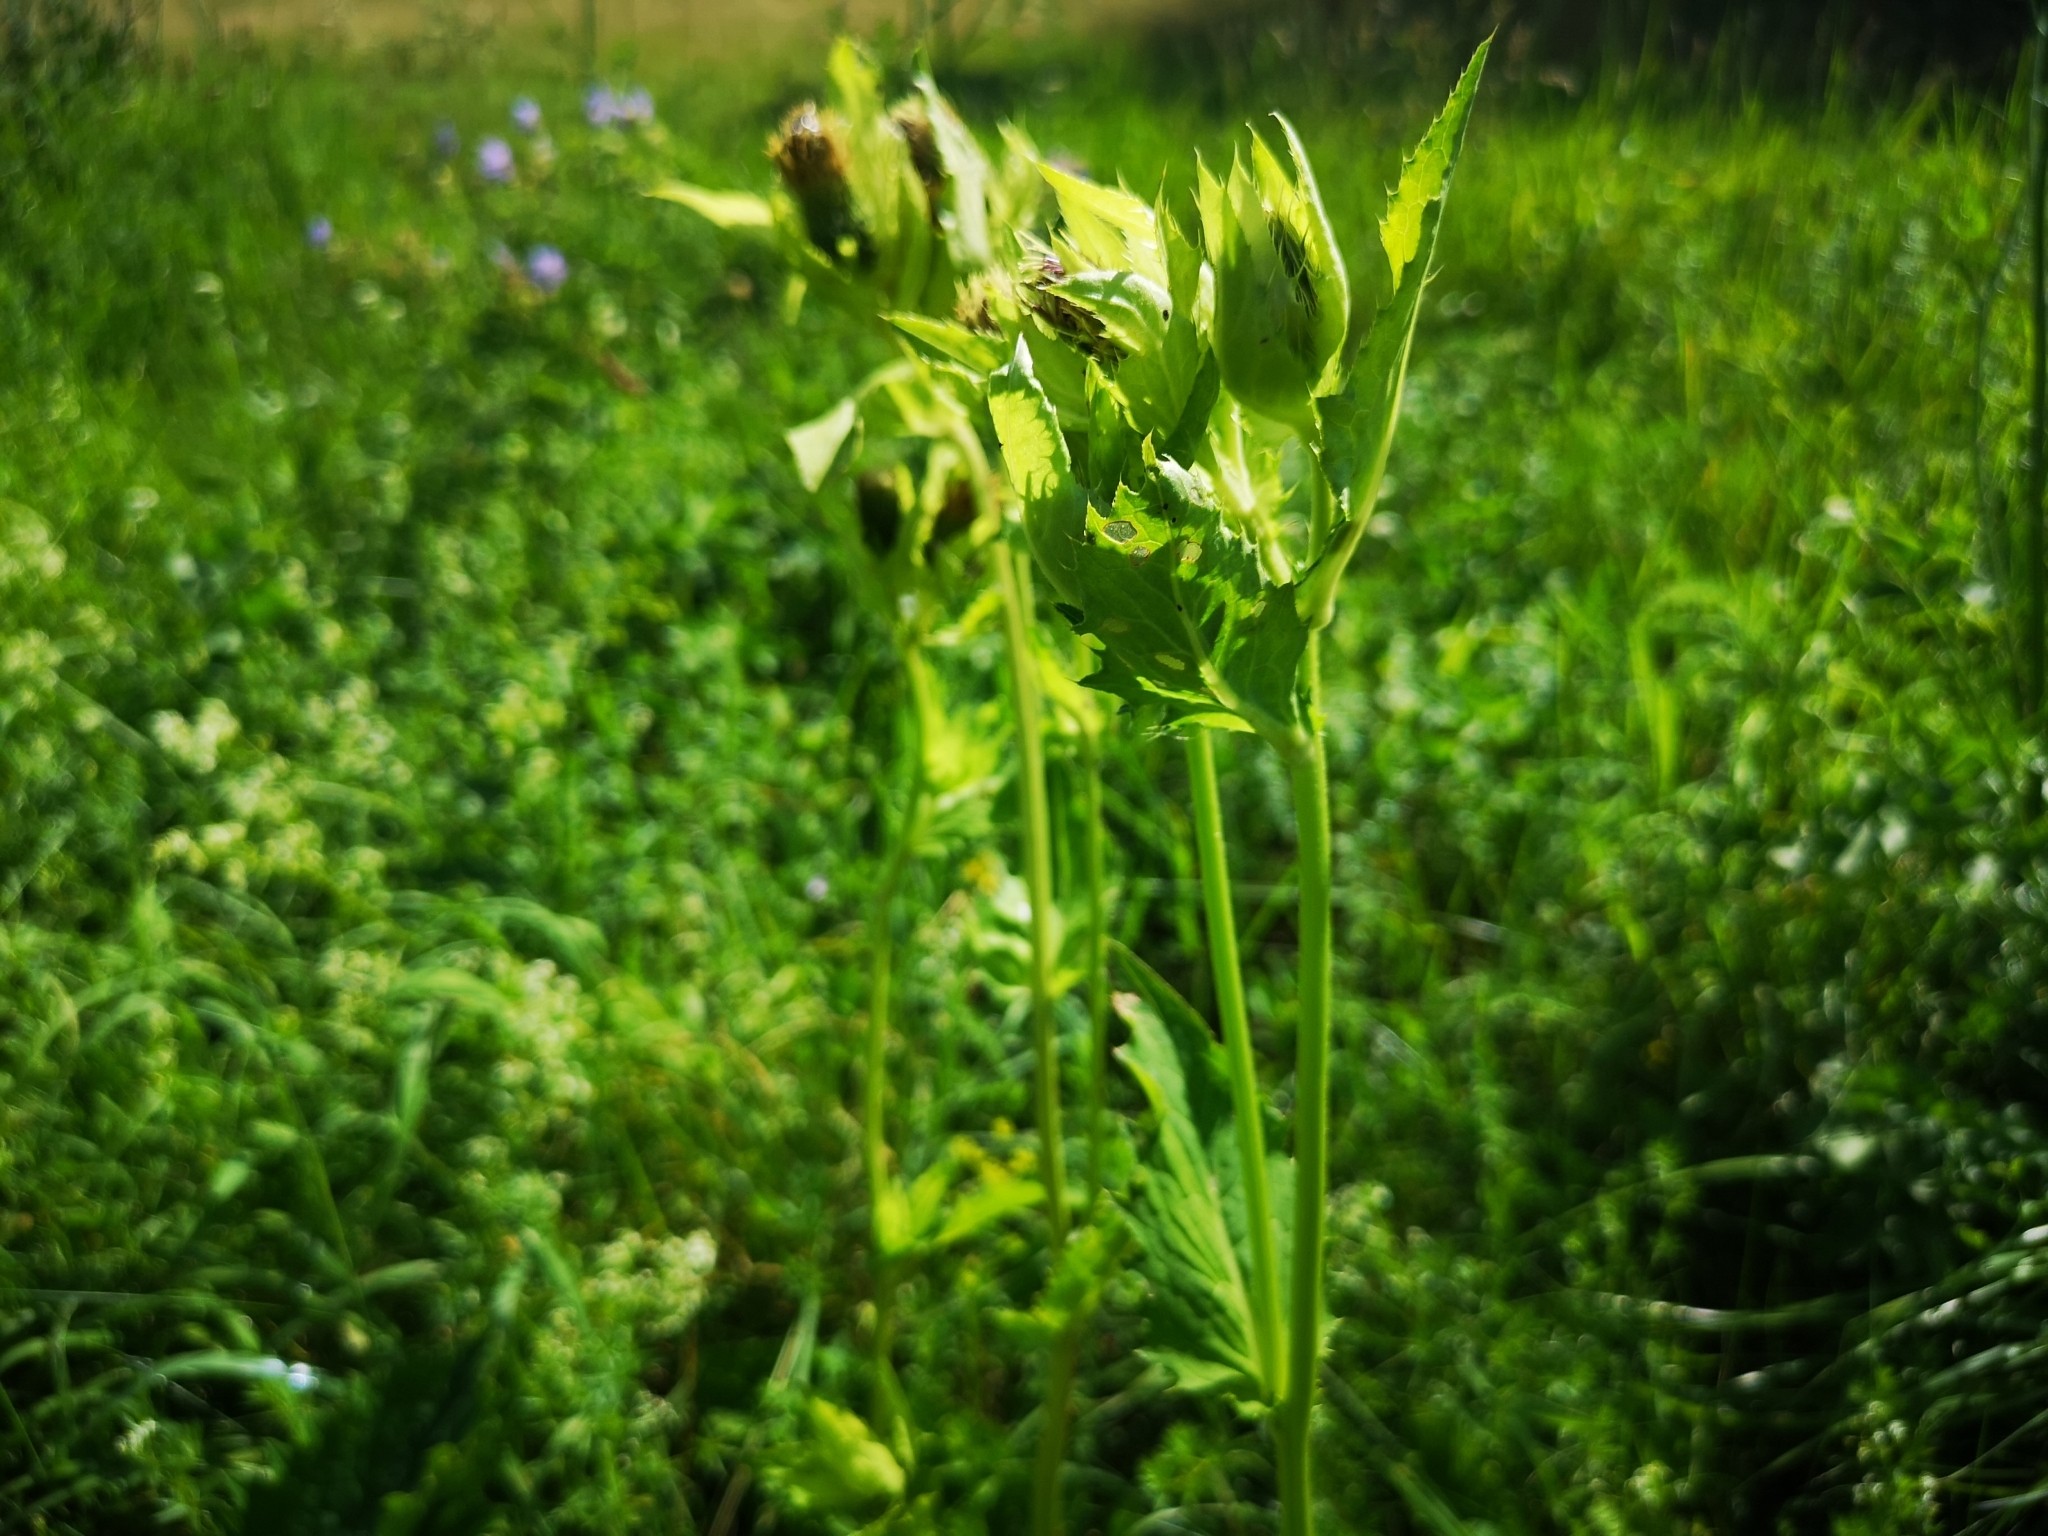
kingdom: Plantae
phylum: Tracheophyta
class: Magnoliopsida
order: Asterales
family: Asteraceae
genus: Cirsium
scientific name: Cirsium oleraceum
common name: Cabbage thistle
